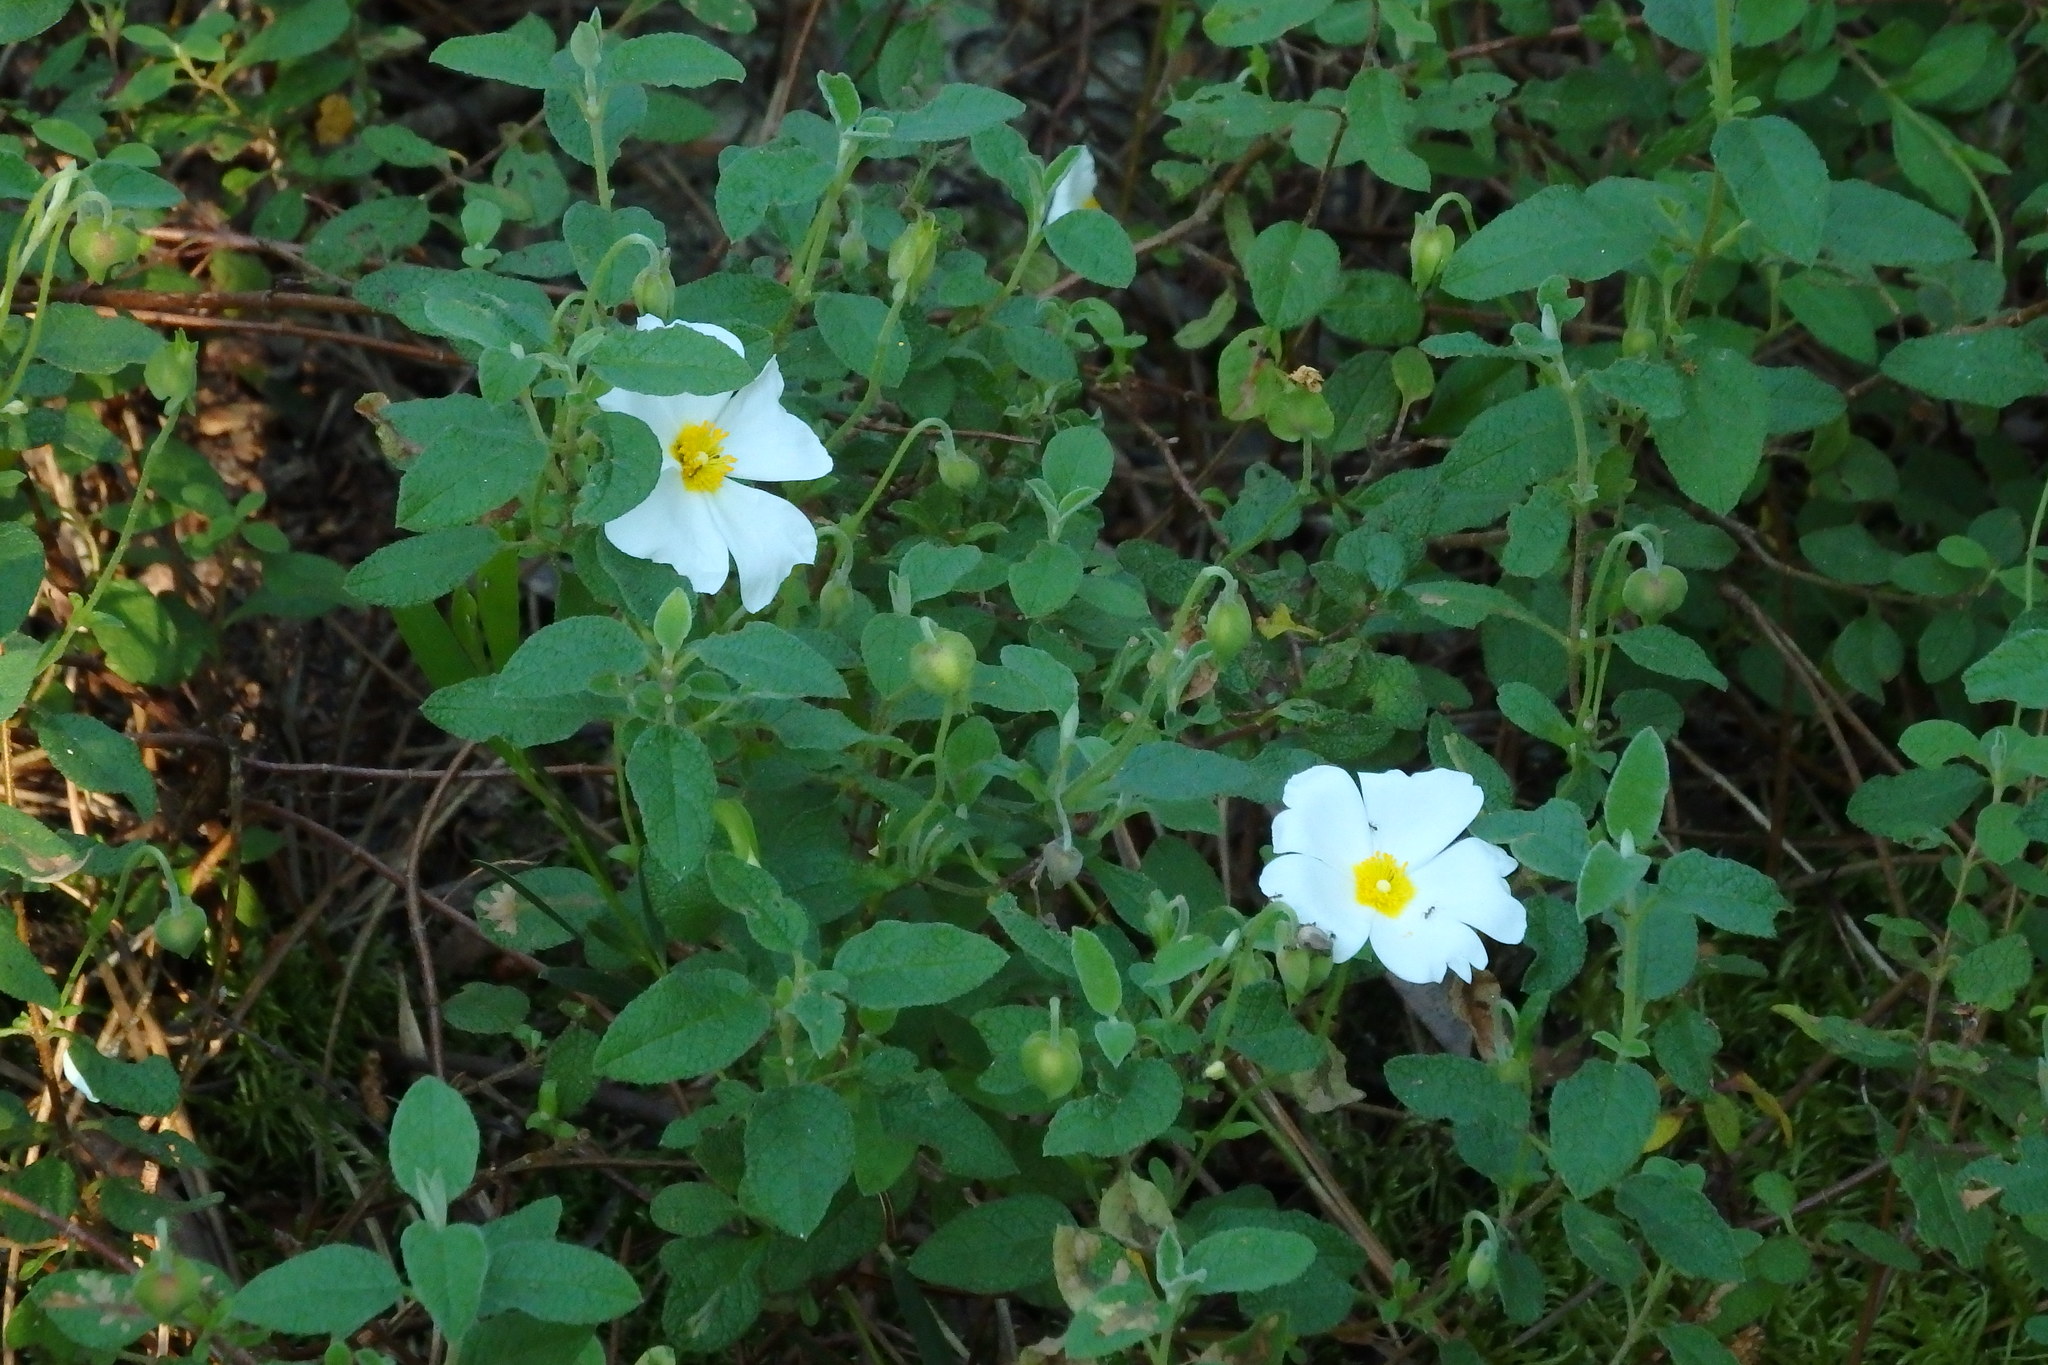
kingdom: Plantae
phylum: Tracheophyta
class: Magnoliopsida
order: Malvales
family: Cistaceae
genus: Cistus
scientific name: Cistus salviifolius
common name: Salvia cistus
